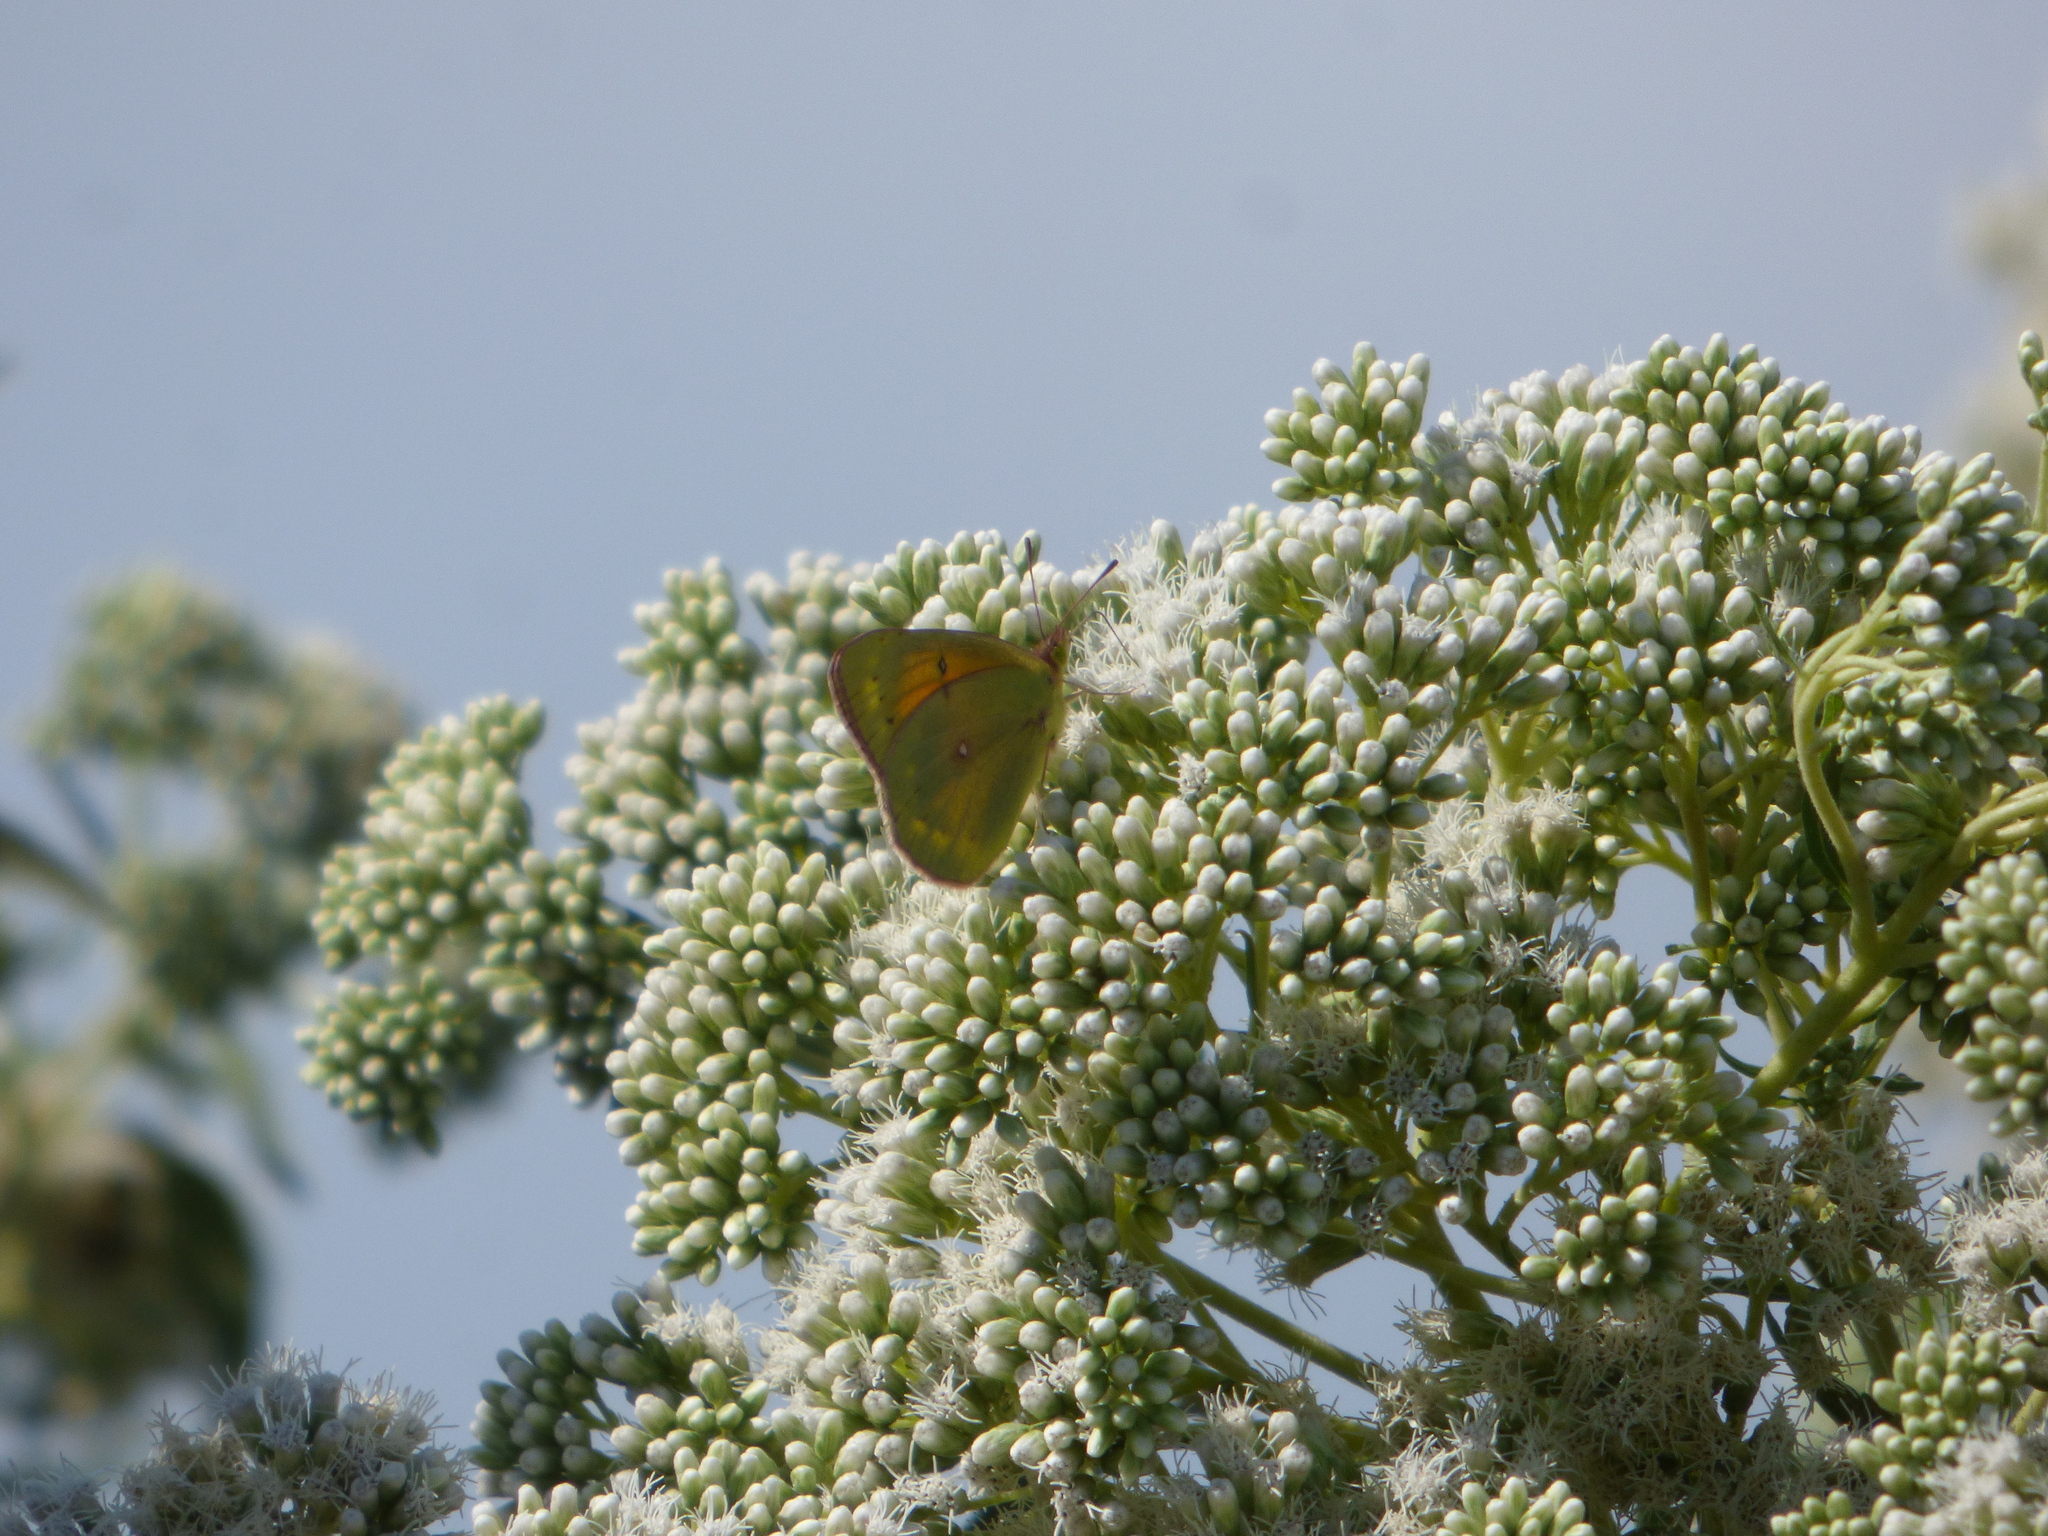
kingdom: Animalia
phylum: Arthropoda
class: Insecta
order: Lepidoptera
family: Pieridae
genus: Colias
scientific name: Colias lesbia
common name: Lesbia clouded yellow
